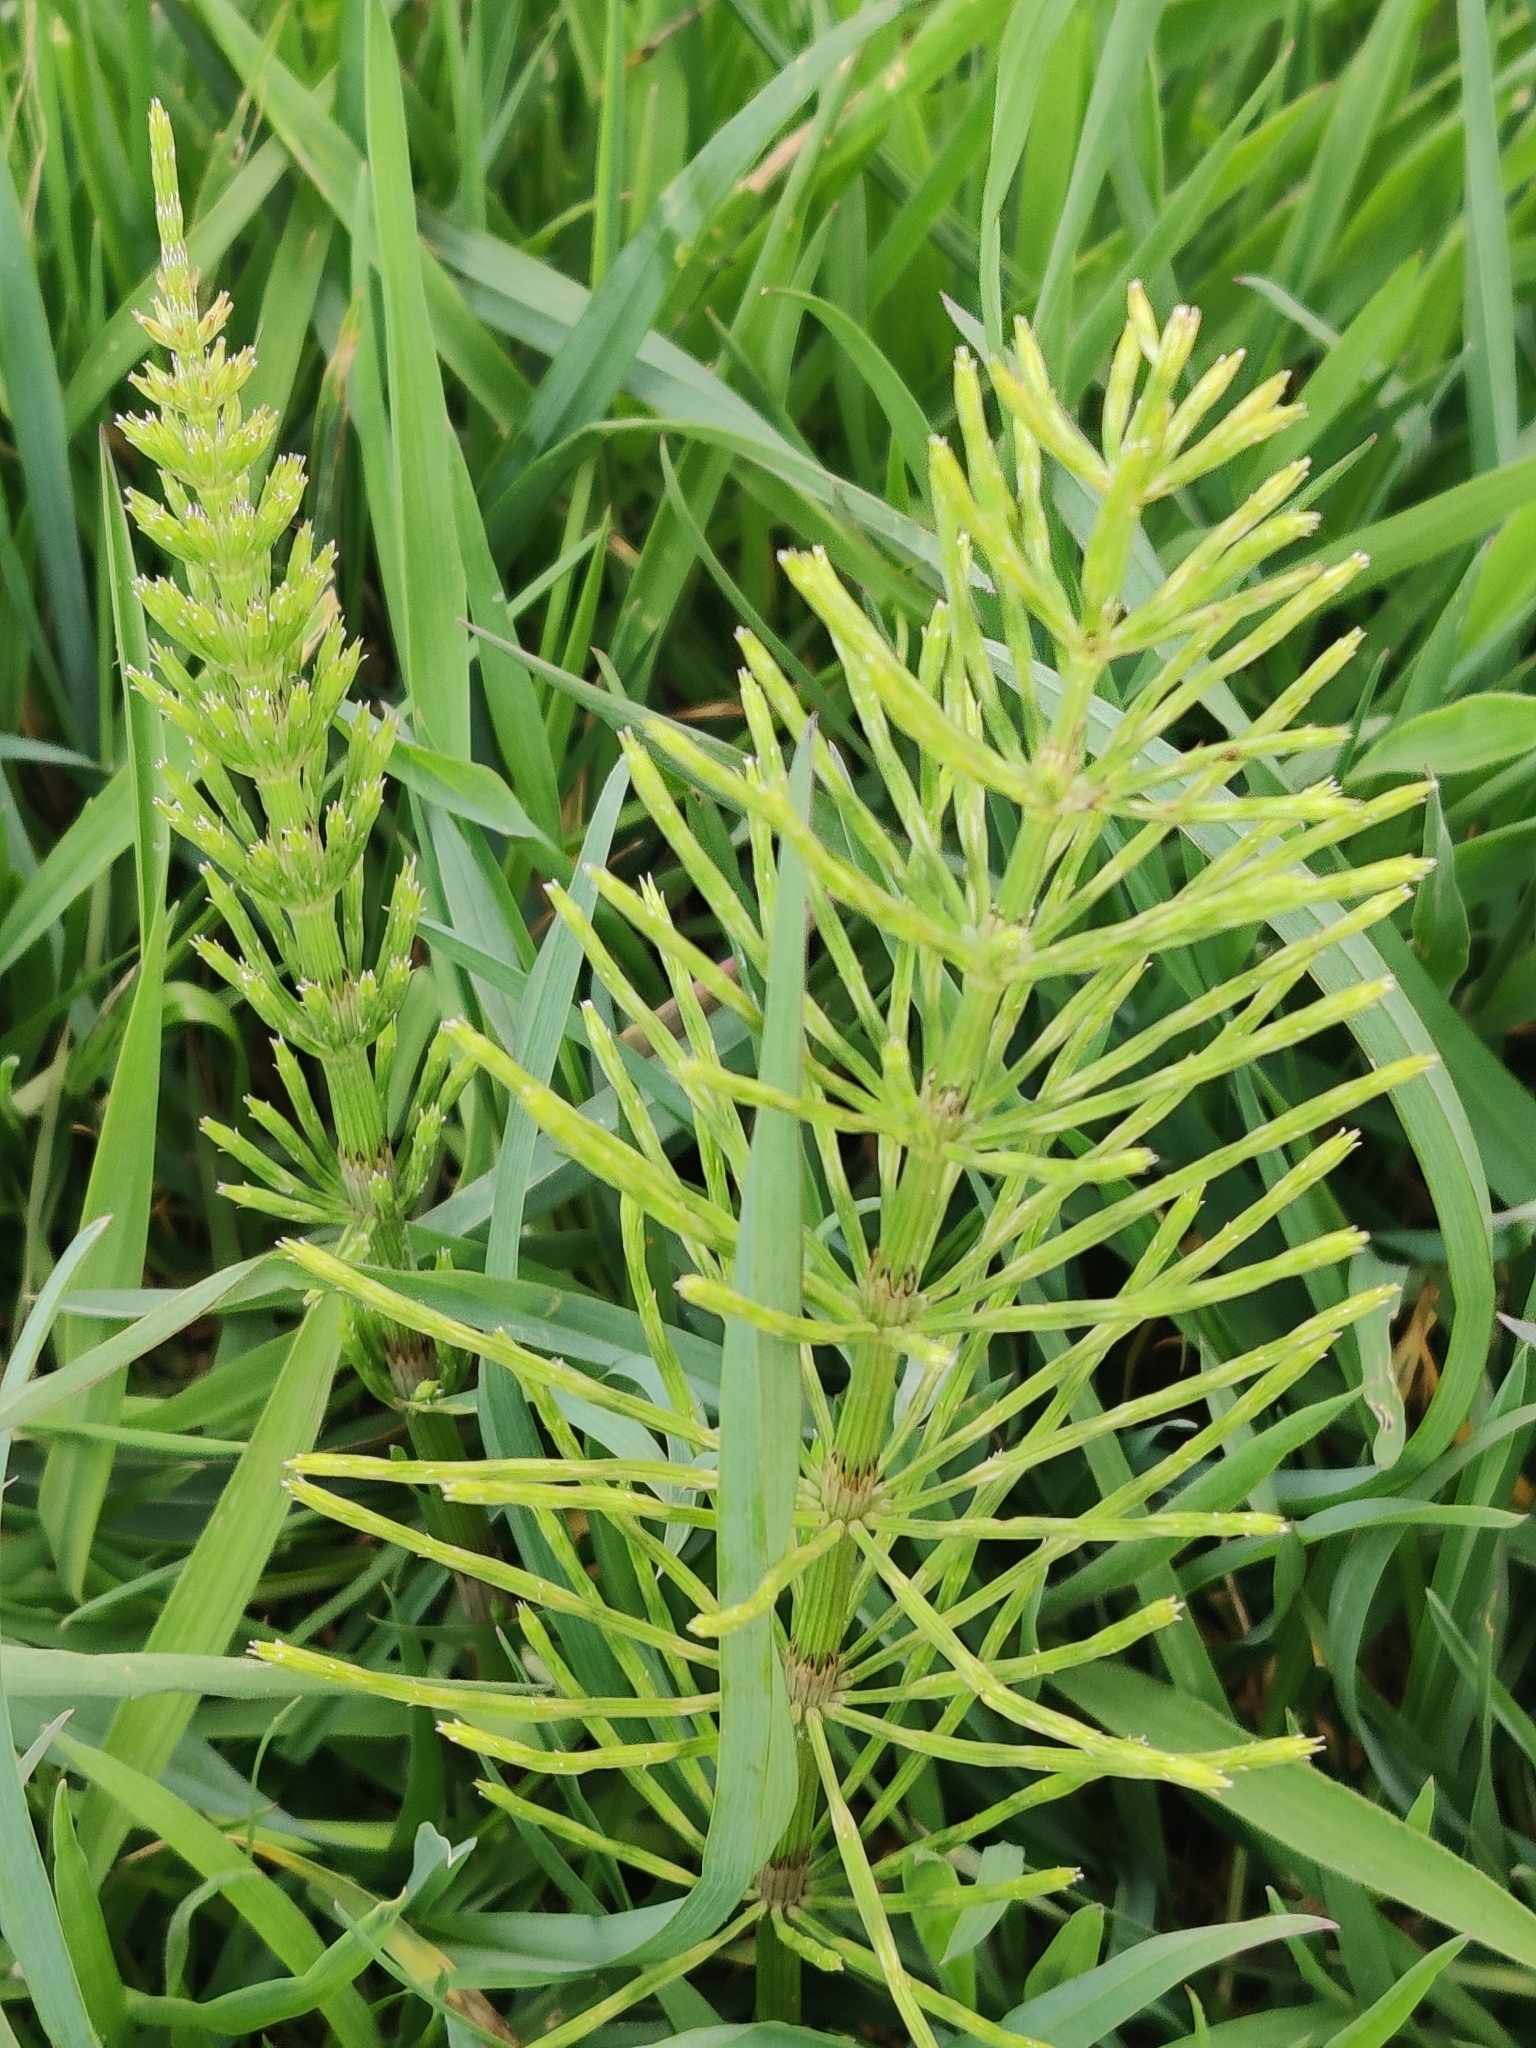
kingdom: Plantae
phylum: Tracheophyta
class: Polypodiopsida
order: Equisetales
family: Equisetaceae
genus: Equisetum
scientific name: Equisetum arvense
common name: Field horsetail
